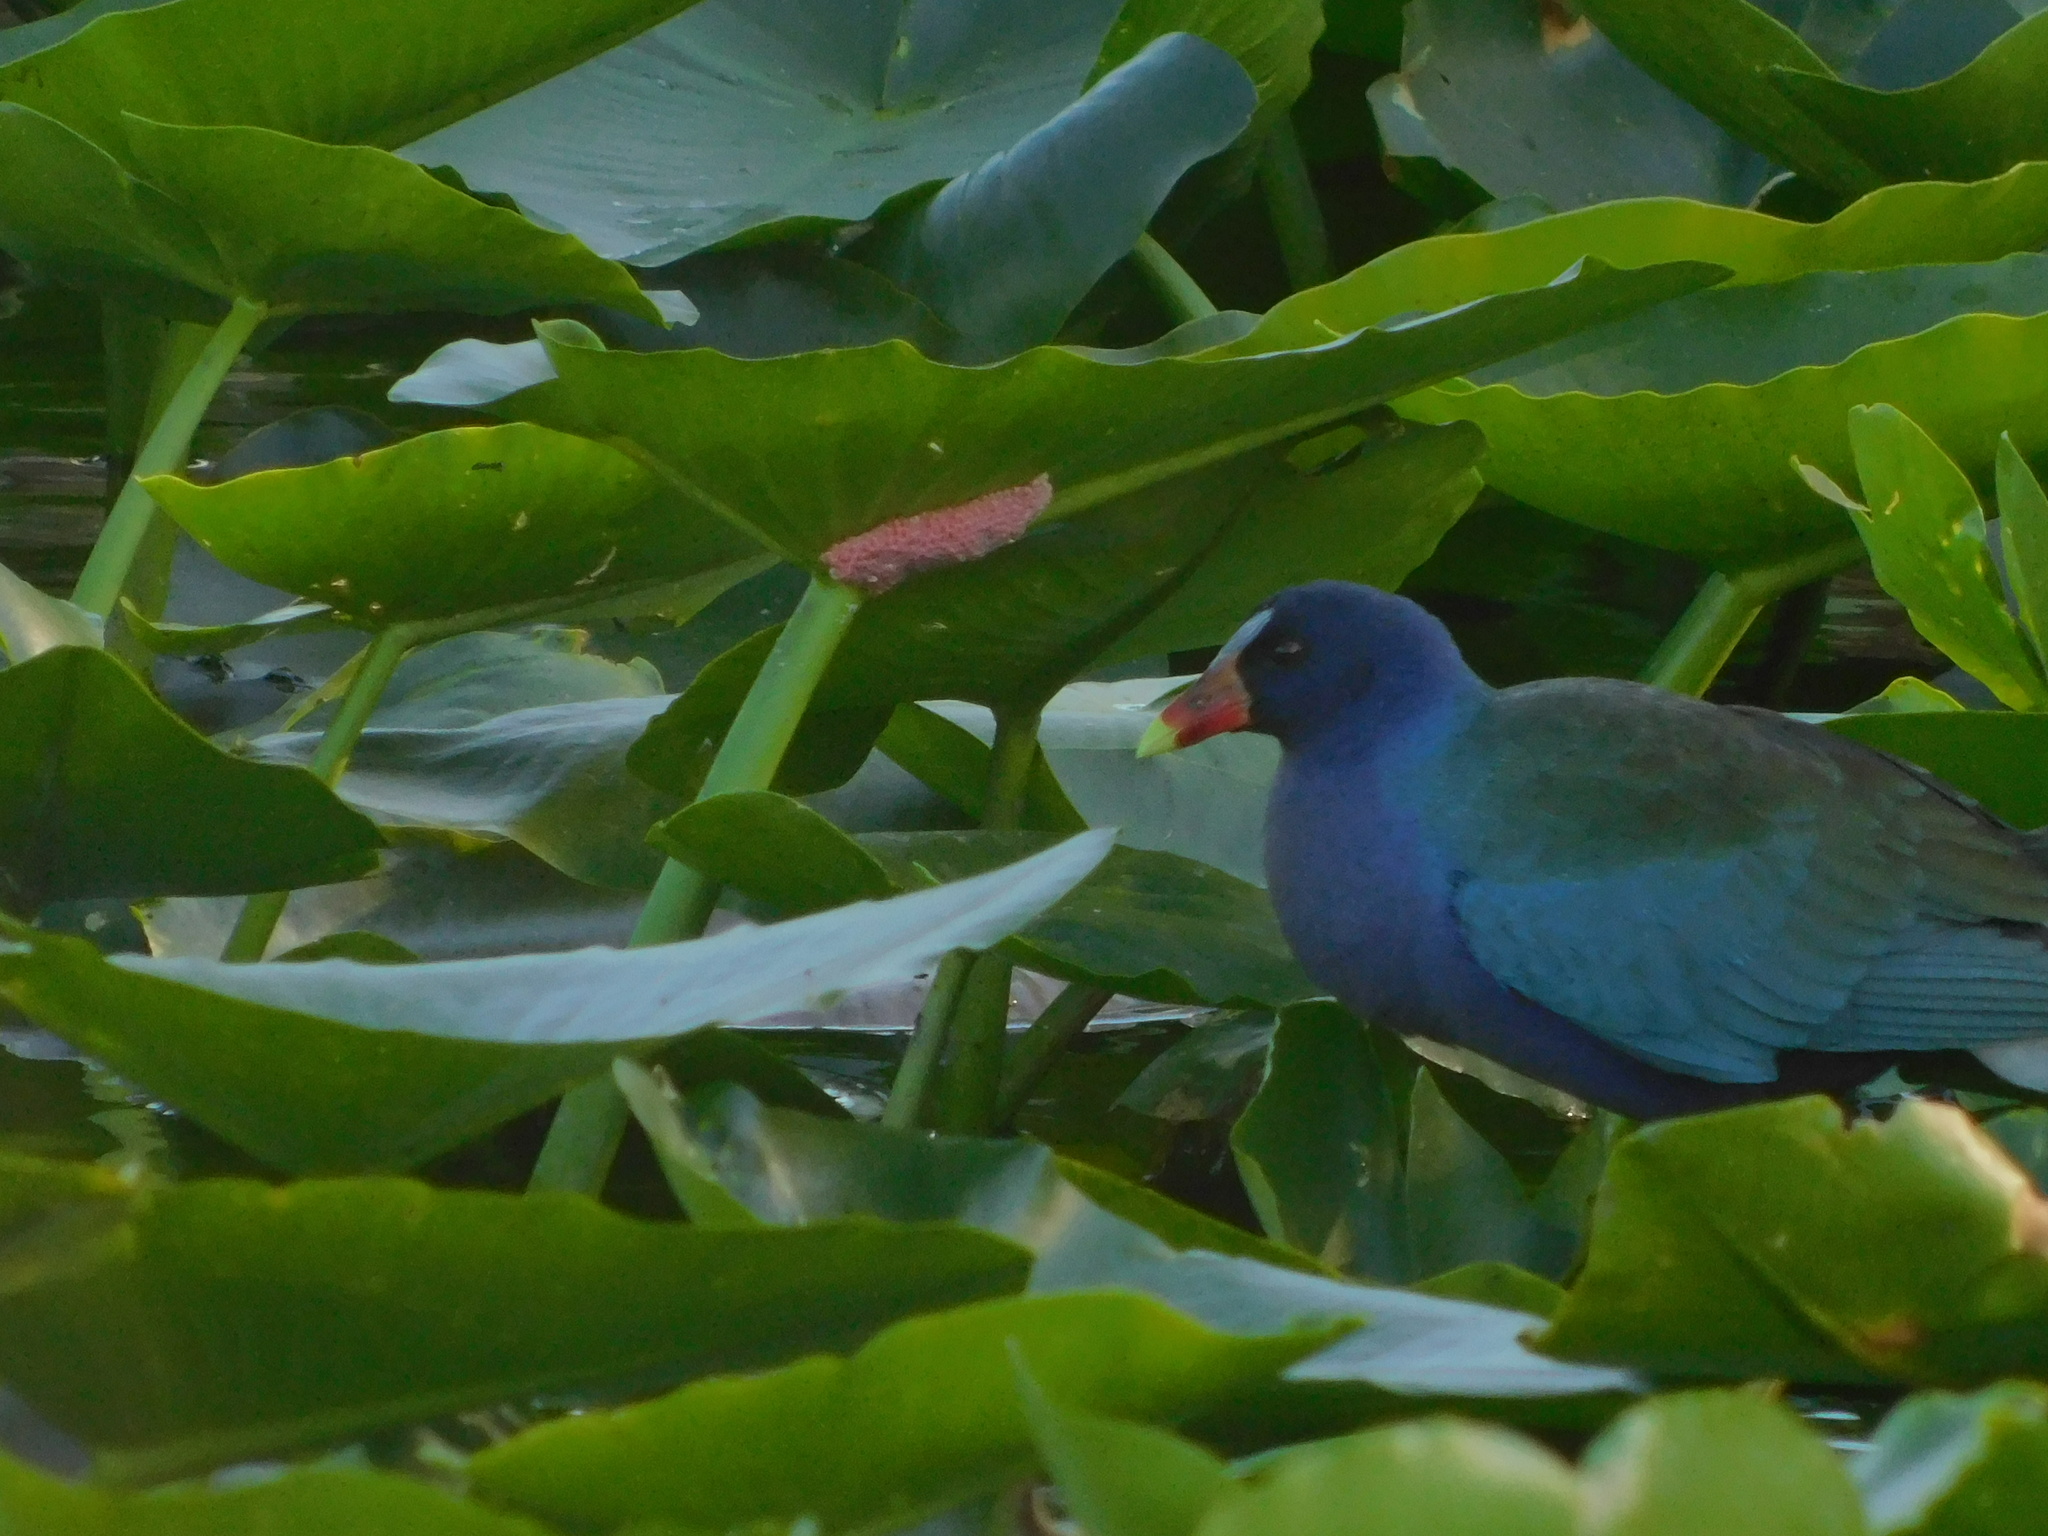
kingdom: Animalia
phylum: Chordata
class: Aves
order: Gruiformes
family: Rallidae
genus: Porphyrio
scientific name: Porphyrio martinica
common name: Purple gallinule
